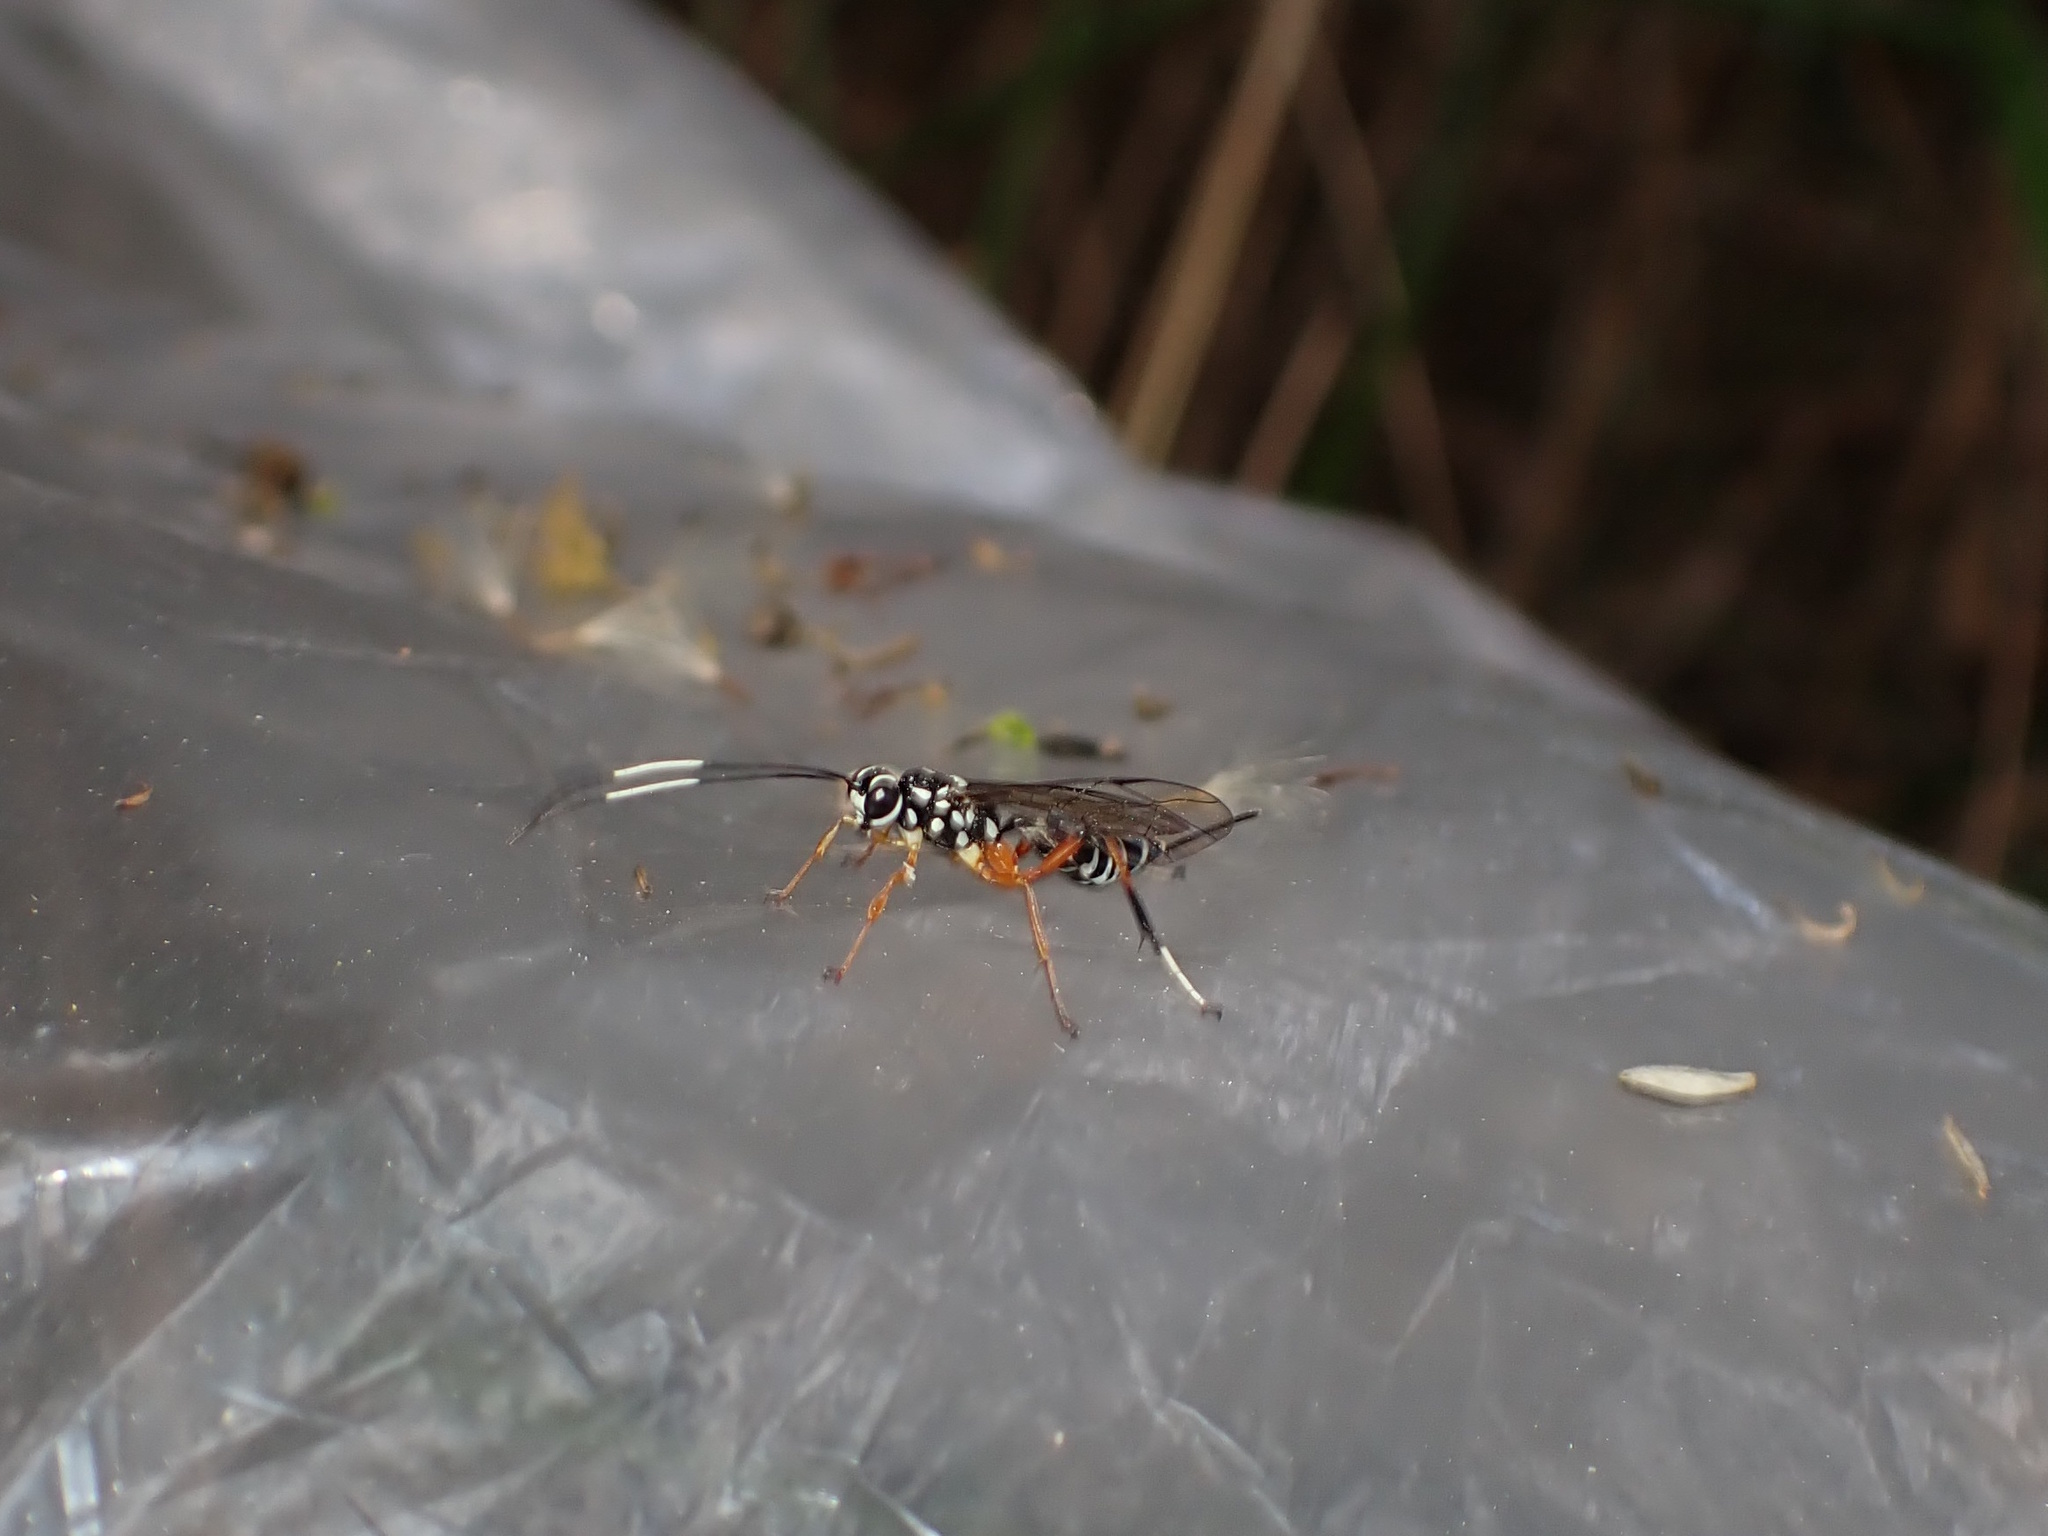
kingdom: Animalia
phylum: Arthropoda
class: Insecta
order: Hymenoptera
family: Ichneumonidae
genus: Xanthocryptus
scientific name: Xanthocryptus novozealandicus
